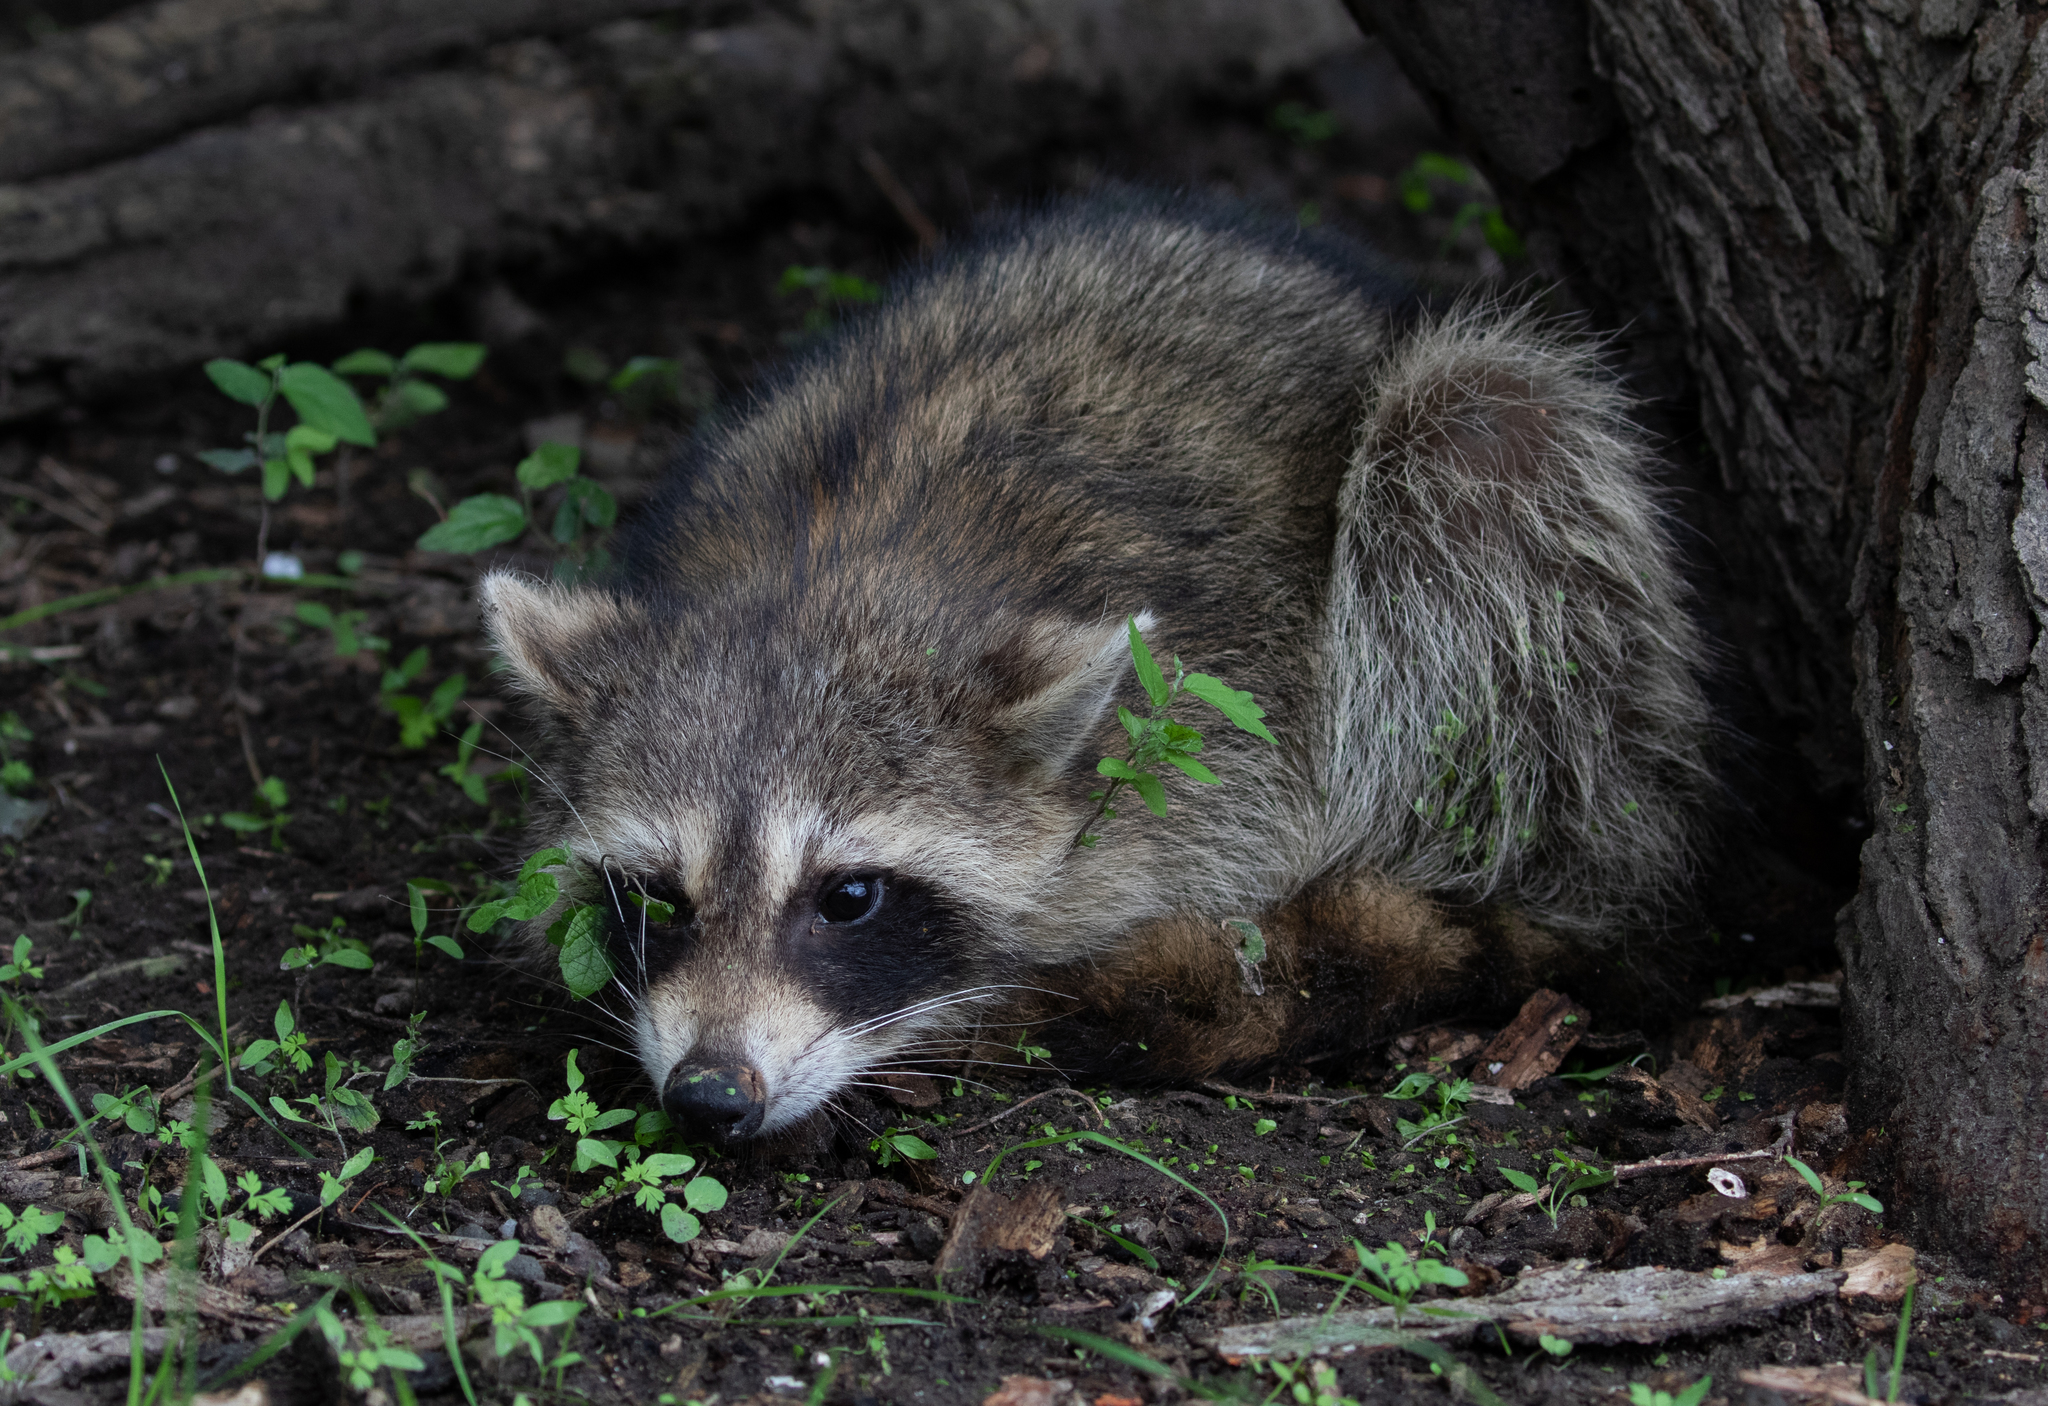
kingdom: Animalia
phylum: Chordata
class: Mammalia
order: Carnivora
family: Procyonidae
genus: Procyon
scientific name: Procyon lotor
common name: Raccoon
